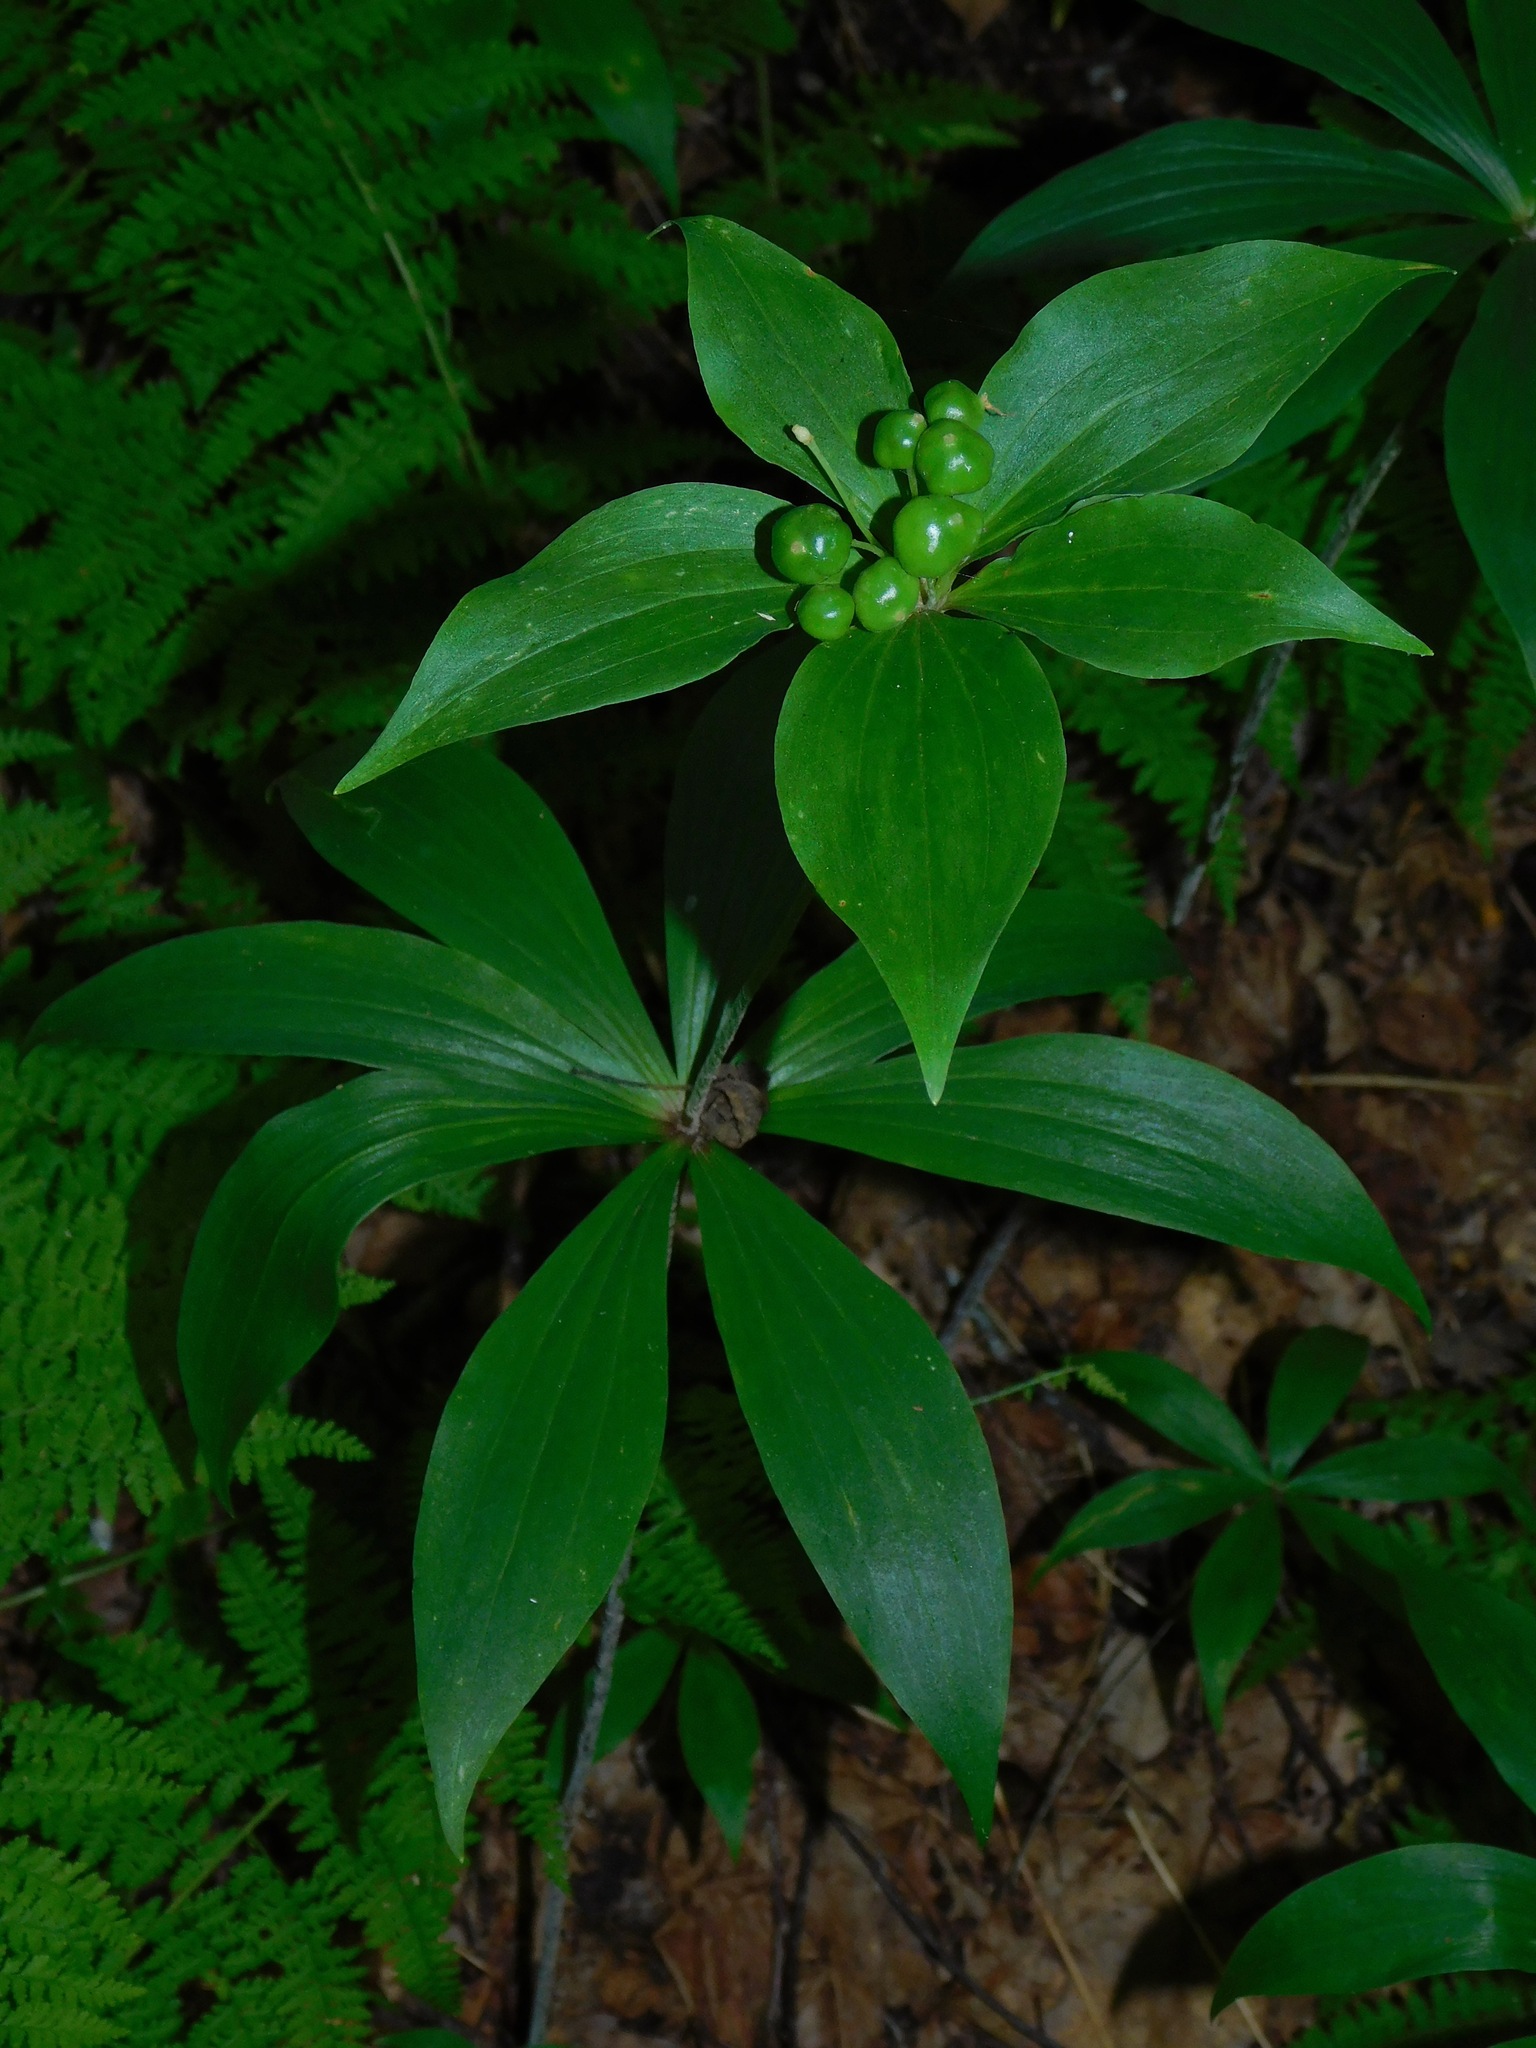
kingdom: Plantae
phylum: Tracheophyta
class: Liliopsida
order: Liliales
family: Liliaceae
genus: Medeola
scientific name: Medeola virginiana
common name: Indian cucumber-root
